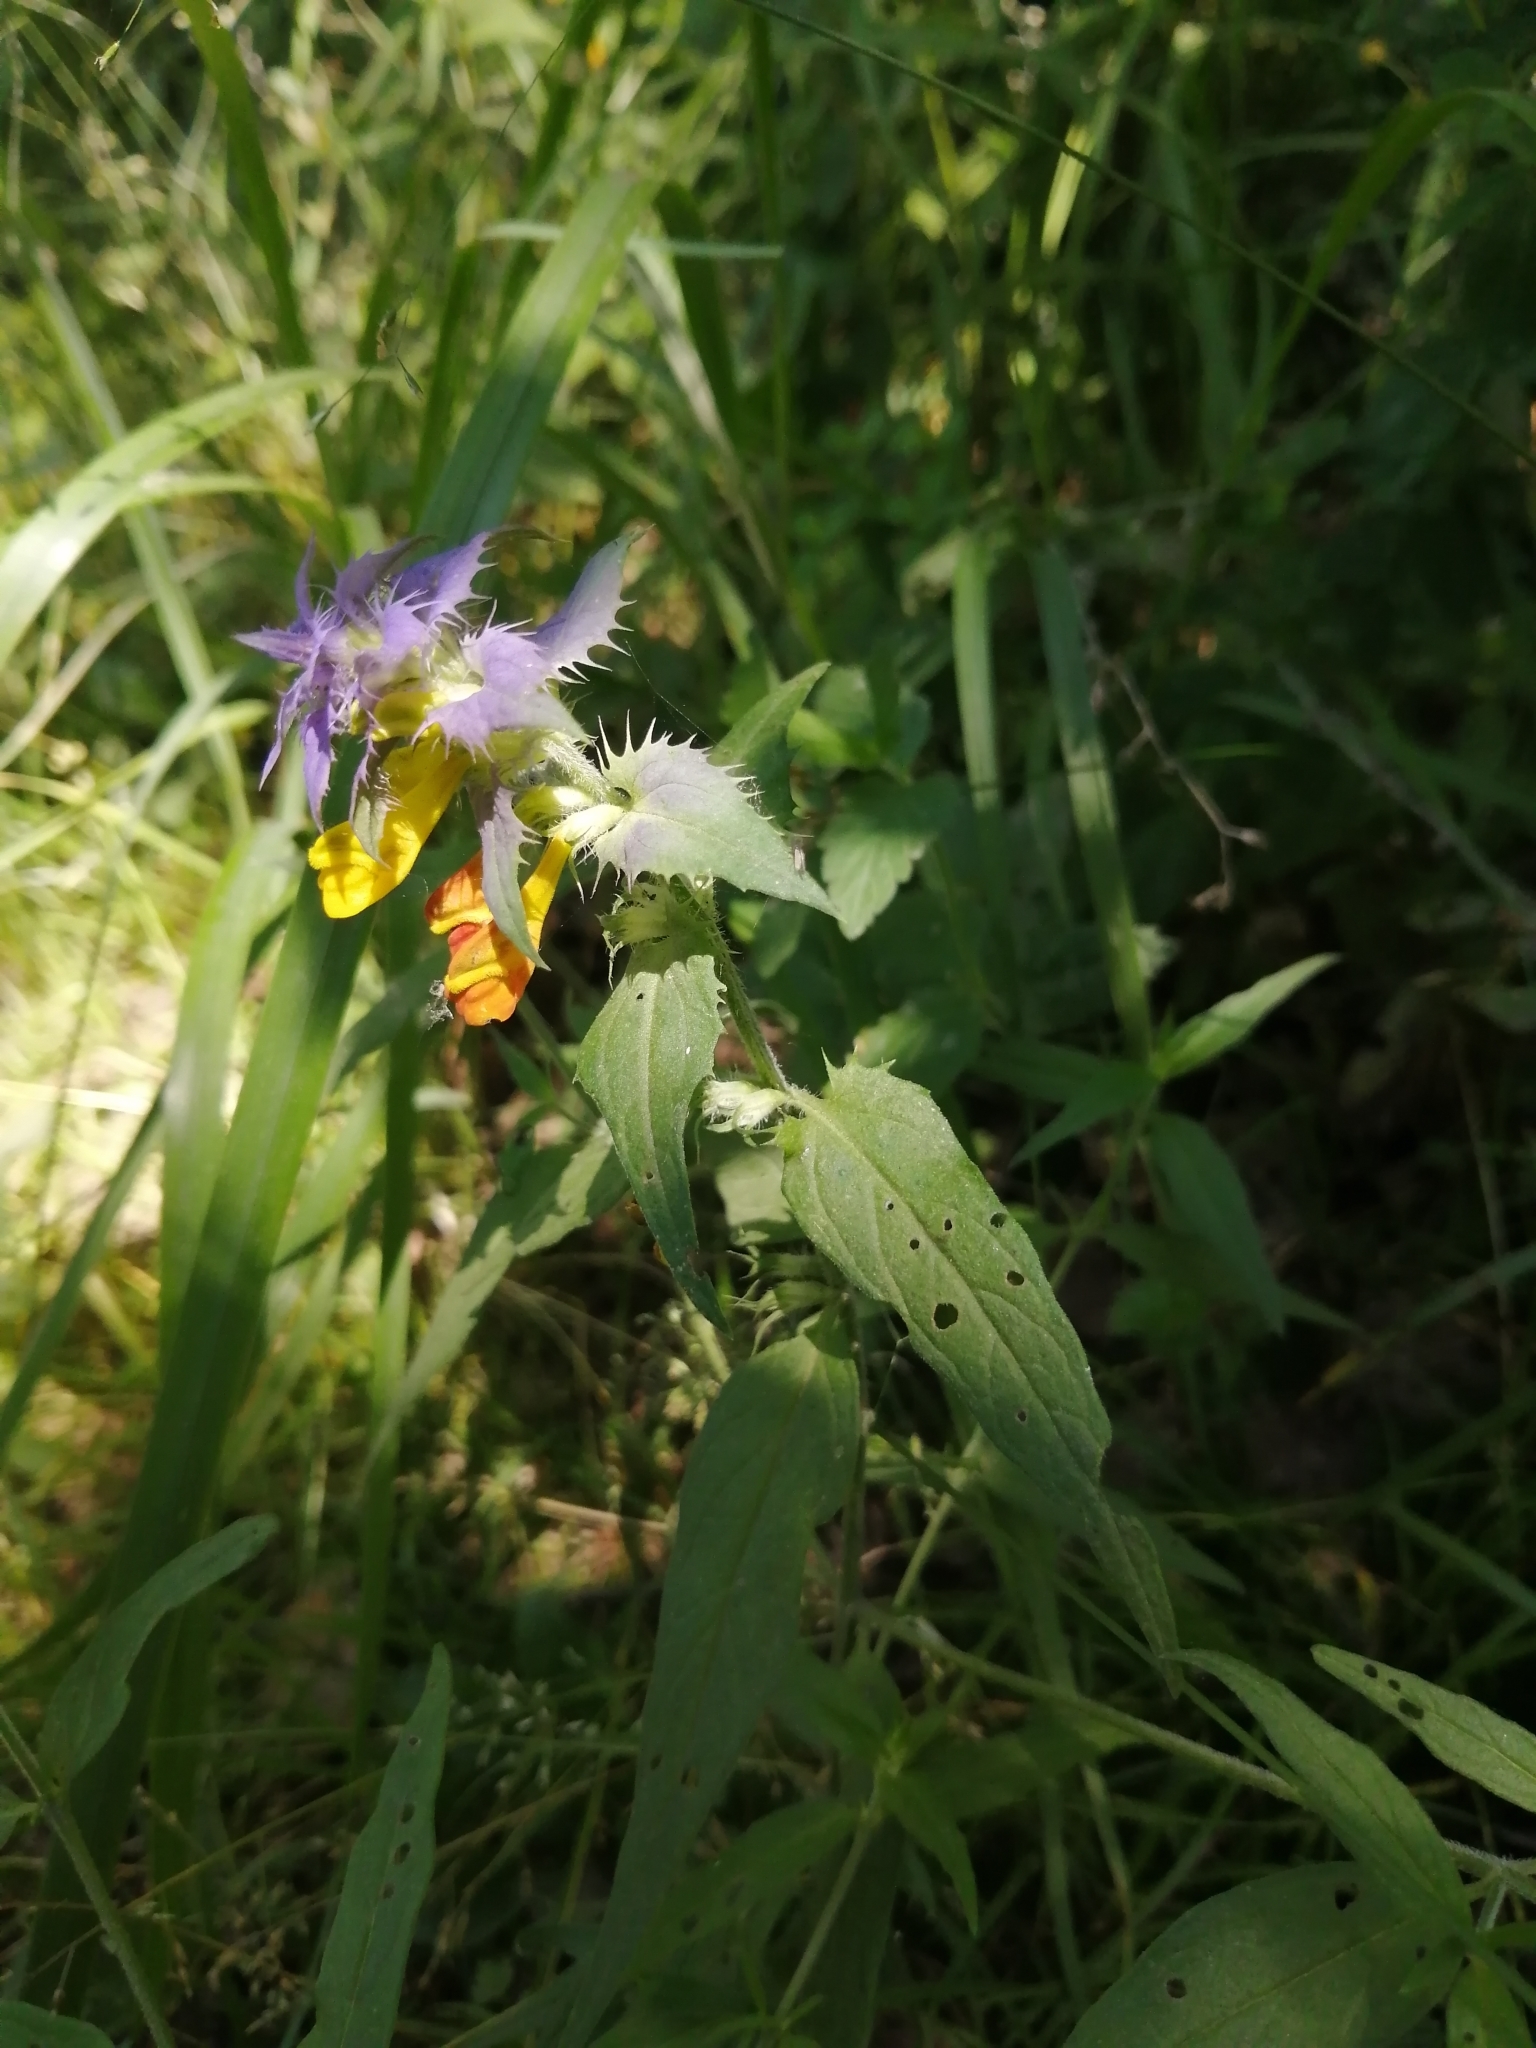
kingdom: Plantae
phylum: Tracheophyta
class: Magnoliopsida
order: Lamiales
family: Orobanchaceae
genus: Melampyrum
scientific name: Melampyrum nemorosum
